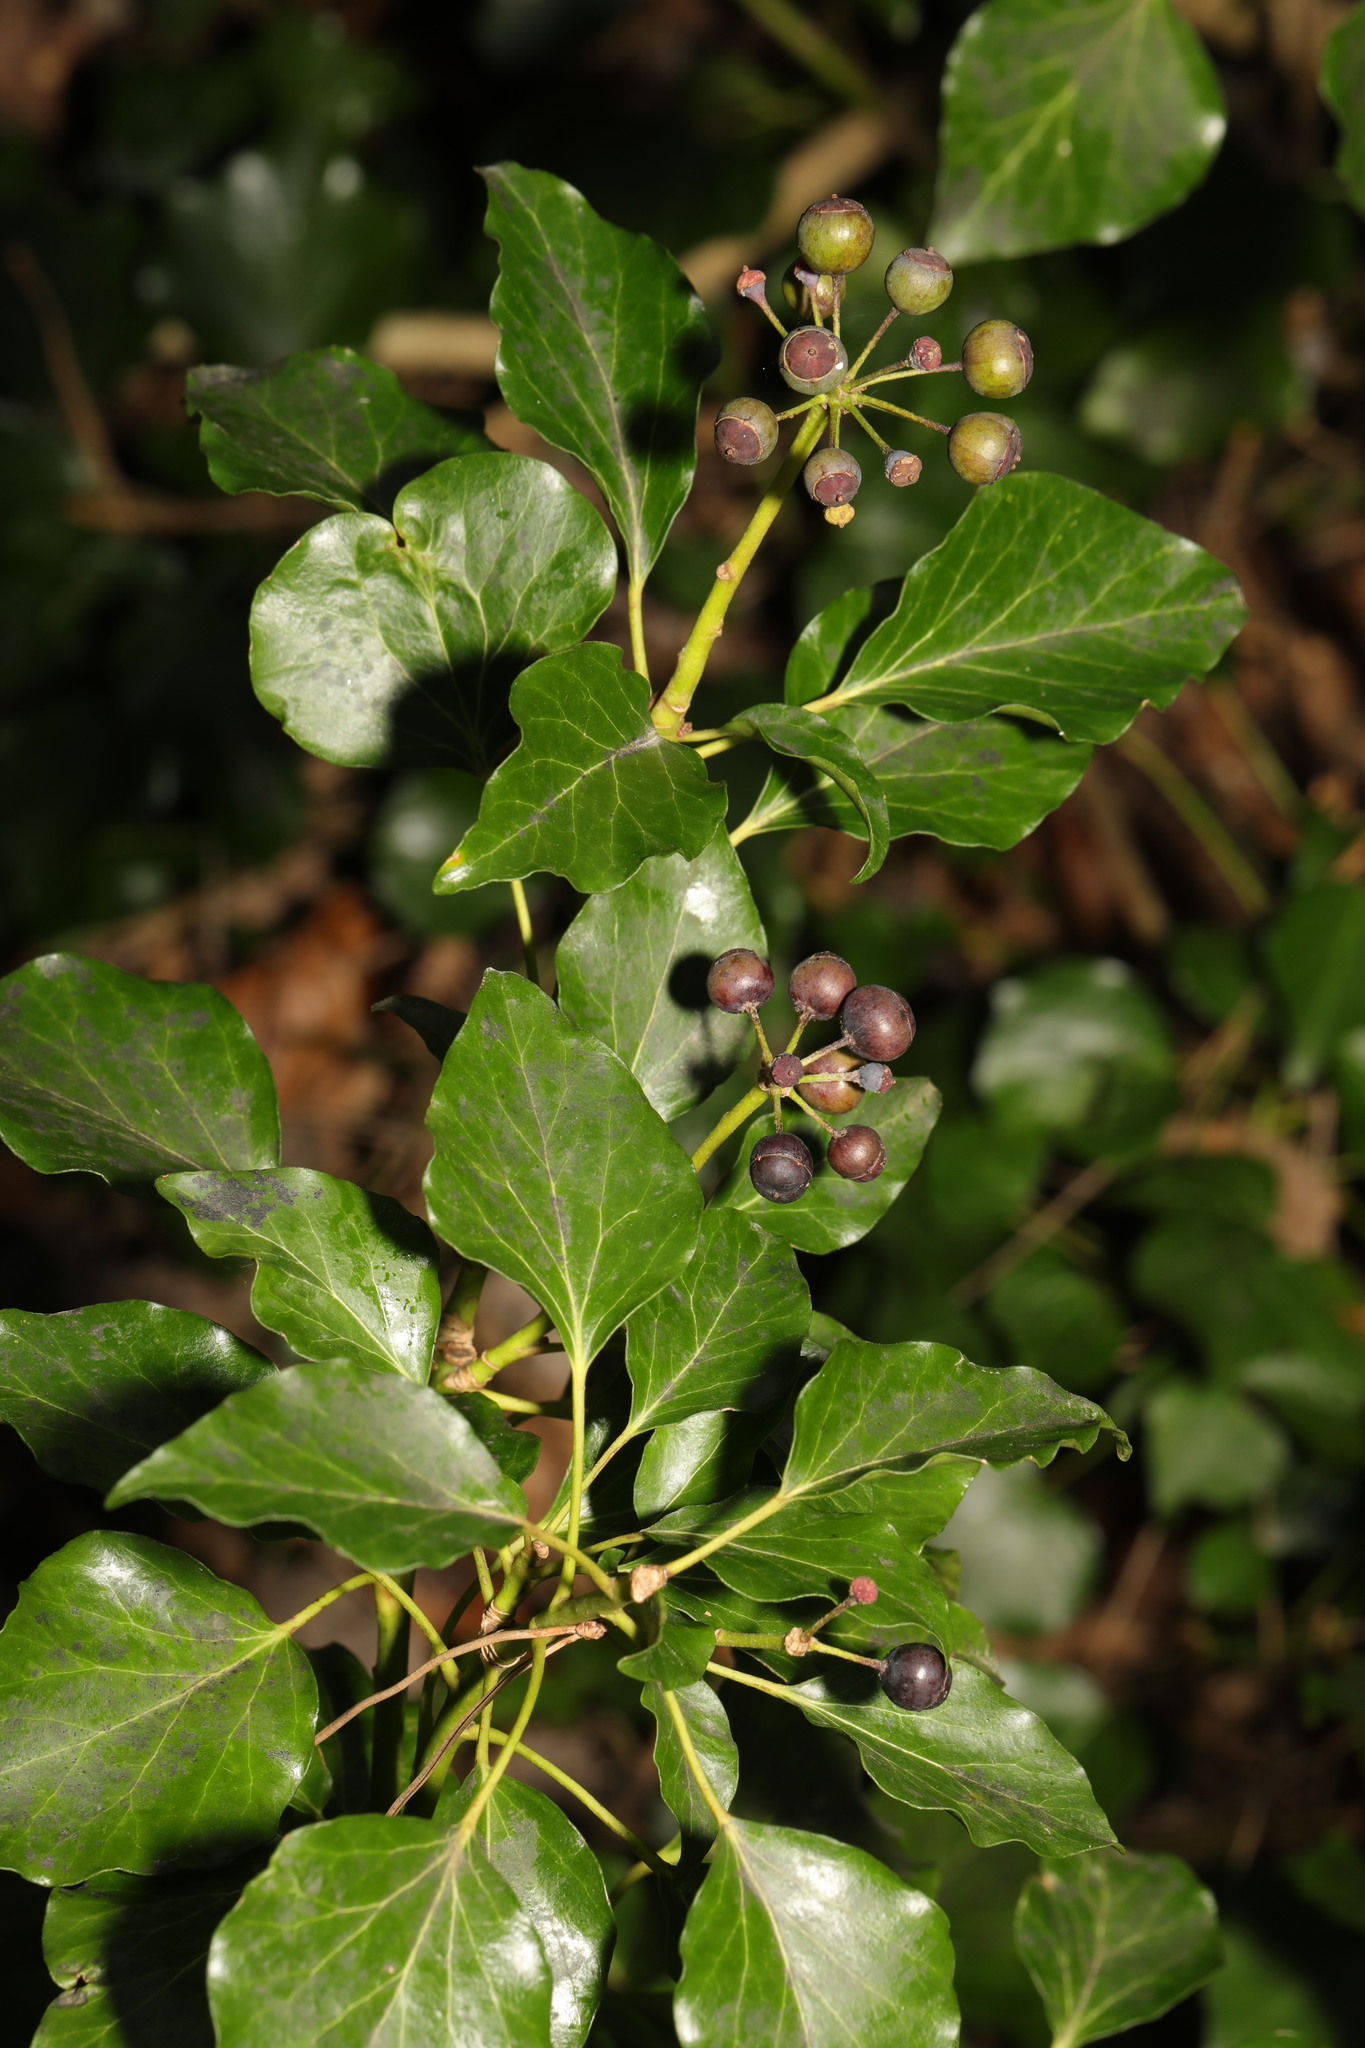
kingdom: Plantae
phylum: Tracheophyta
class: Magnoliopsida
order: Apiales
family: Araliaceae
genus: Hedera
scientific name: Hedera helix
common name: Ivy
